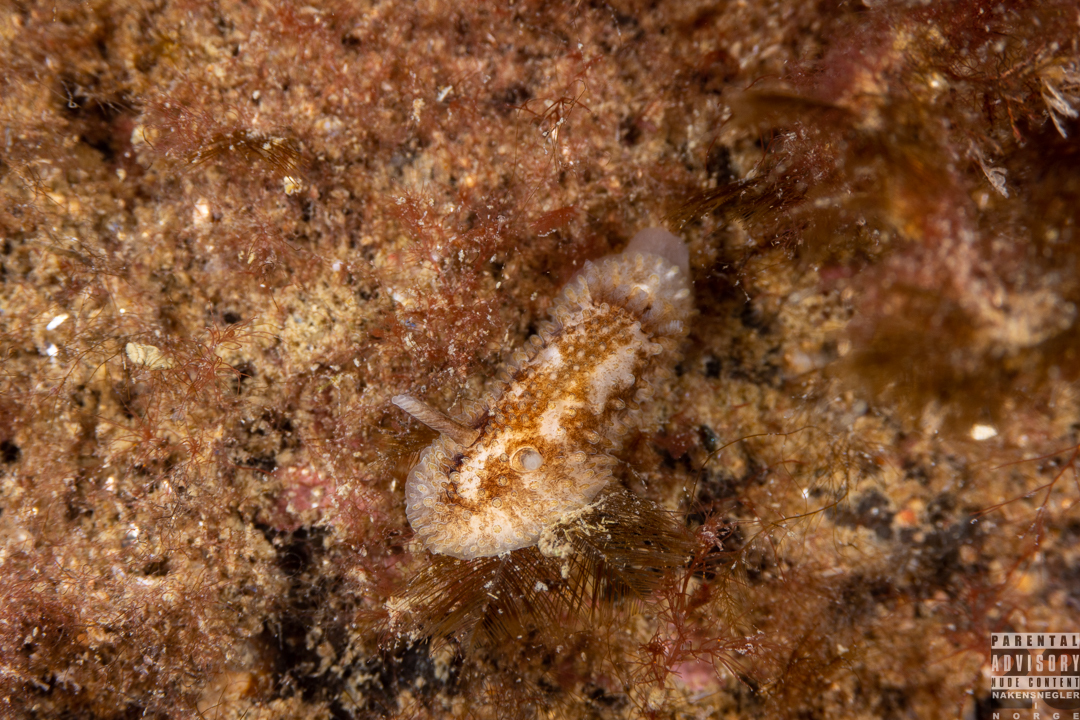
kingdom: Animalia
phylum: Mollusca
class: Gastropoda
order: Nudibranchia
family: Onchidorididae
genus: Onchidoris
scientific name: Onchidoris bilamellata
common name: Barnacle-eating onchidoris
